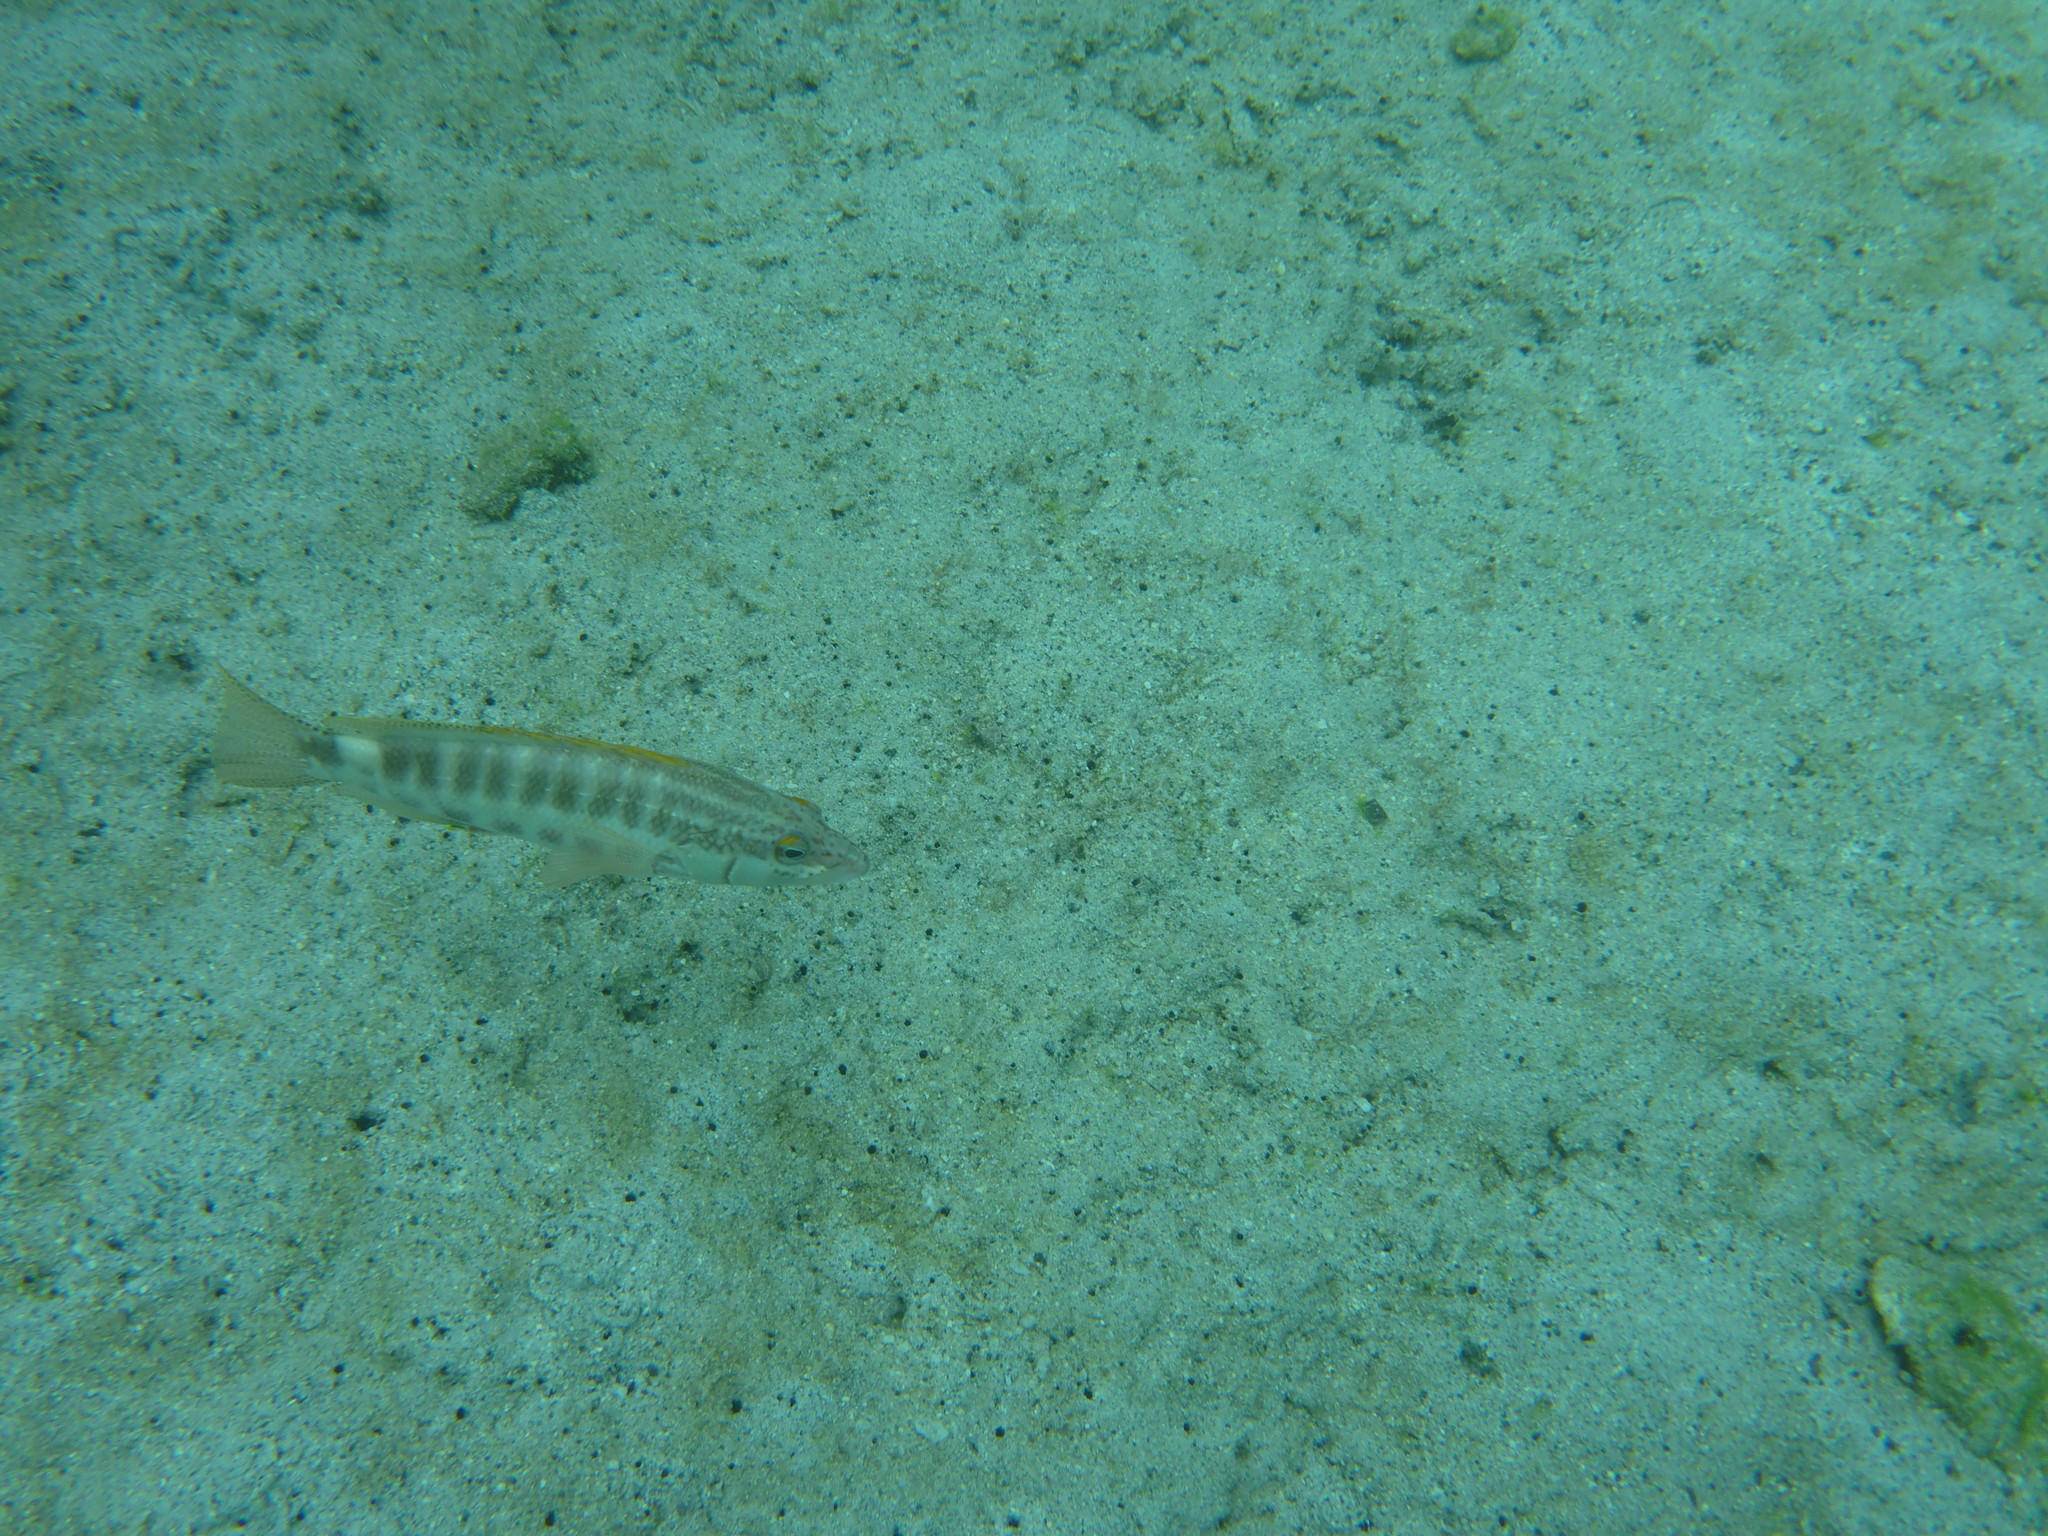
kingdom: Animalia
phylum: Chordata
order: Perciformes
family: Serranidae
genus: Serranus
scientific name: Serranus psittacinus
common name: Barred serrano
